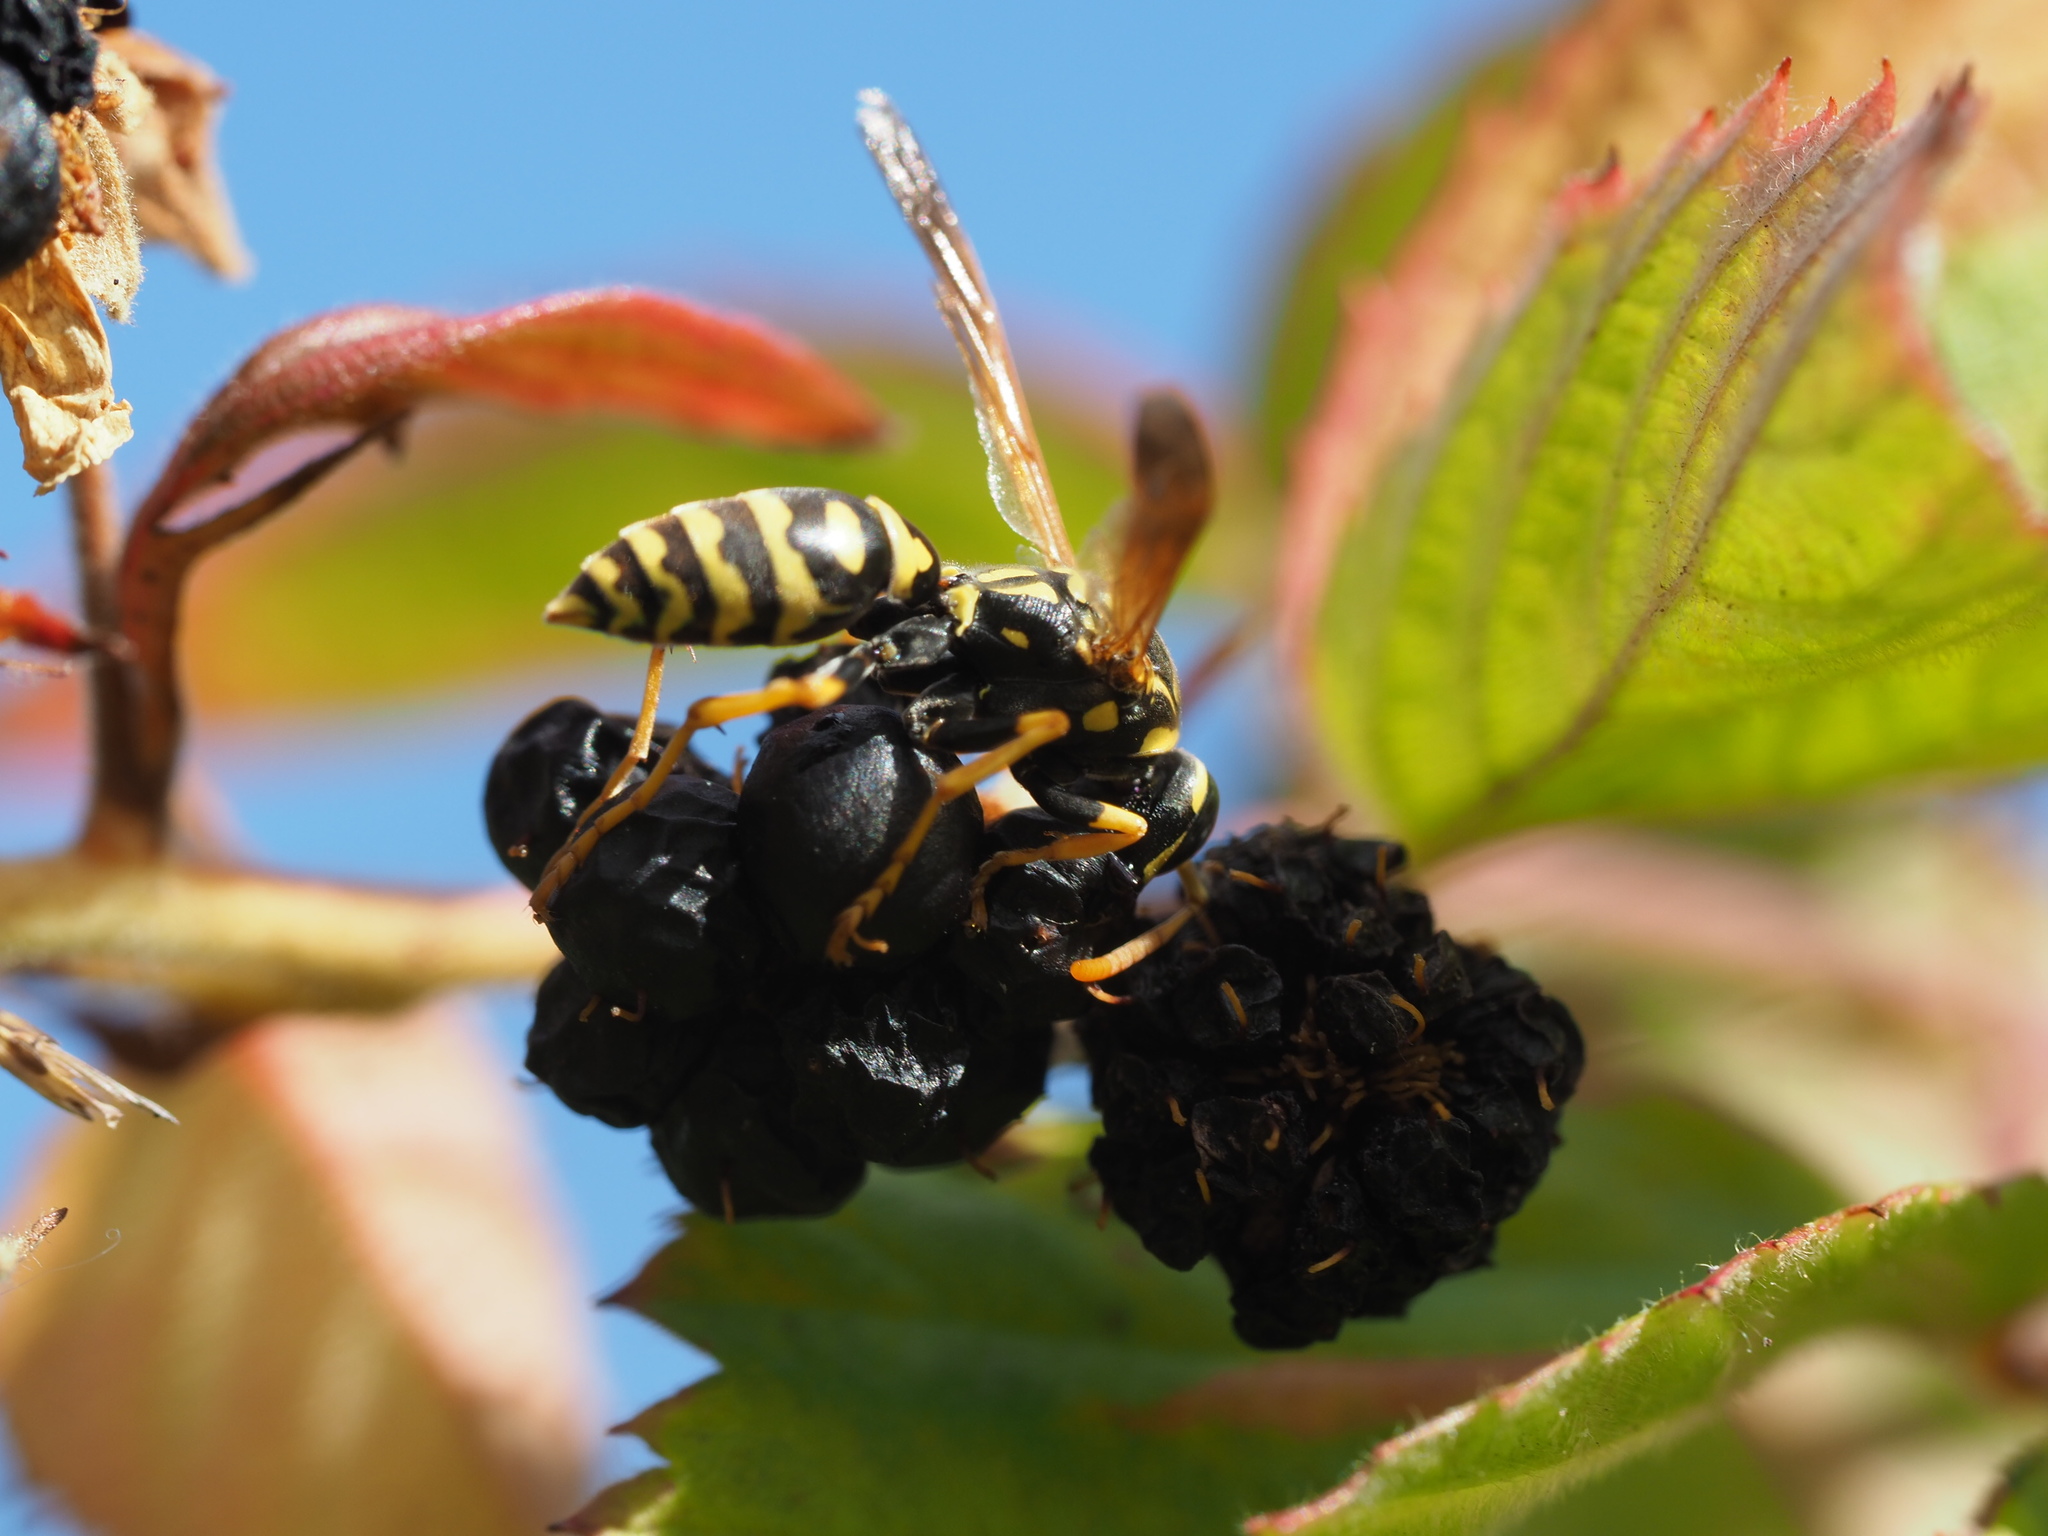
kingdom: Animalia
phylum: Arthropoda
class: Insecta
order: Hymenoptera
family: Eumenidae
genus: Polistes
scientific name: Polistes dominula
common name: Paper wasp
